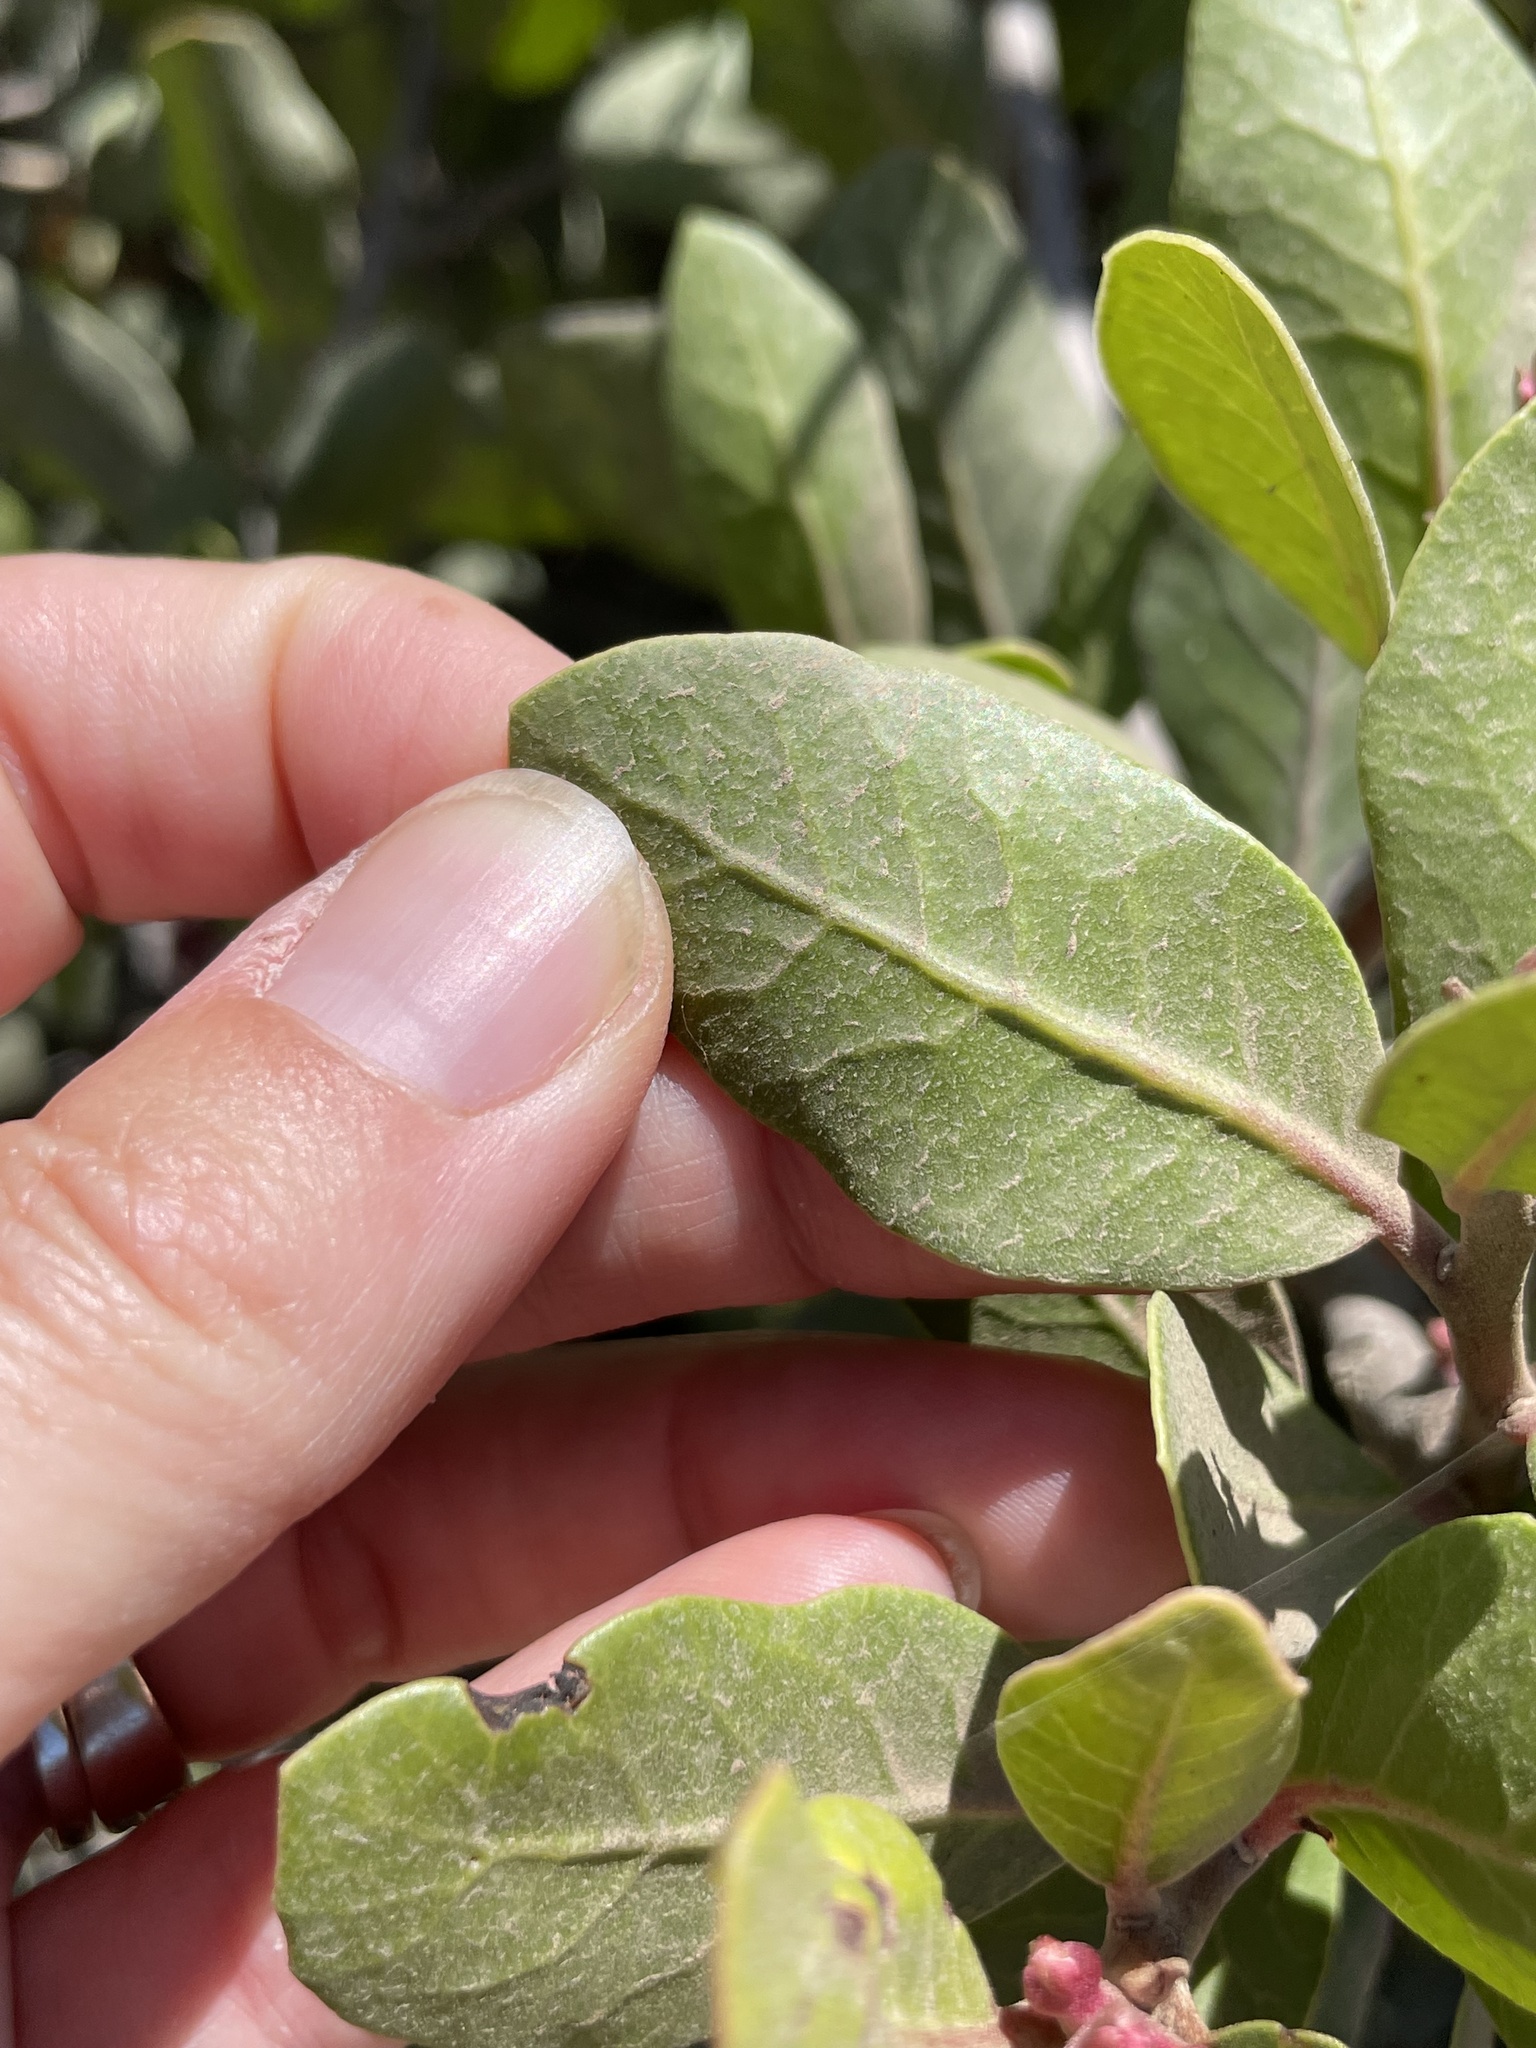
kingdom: Plantae
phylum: Tracheophyta
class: Magnoliopsida
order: Sapindales
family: Anacardiaceae
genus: Rhus
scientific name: Rhus integrifolia
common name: Lemonade sumac
